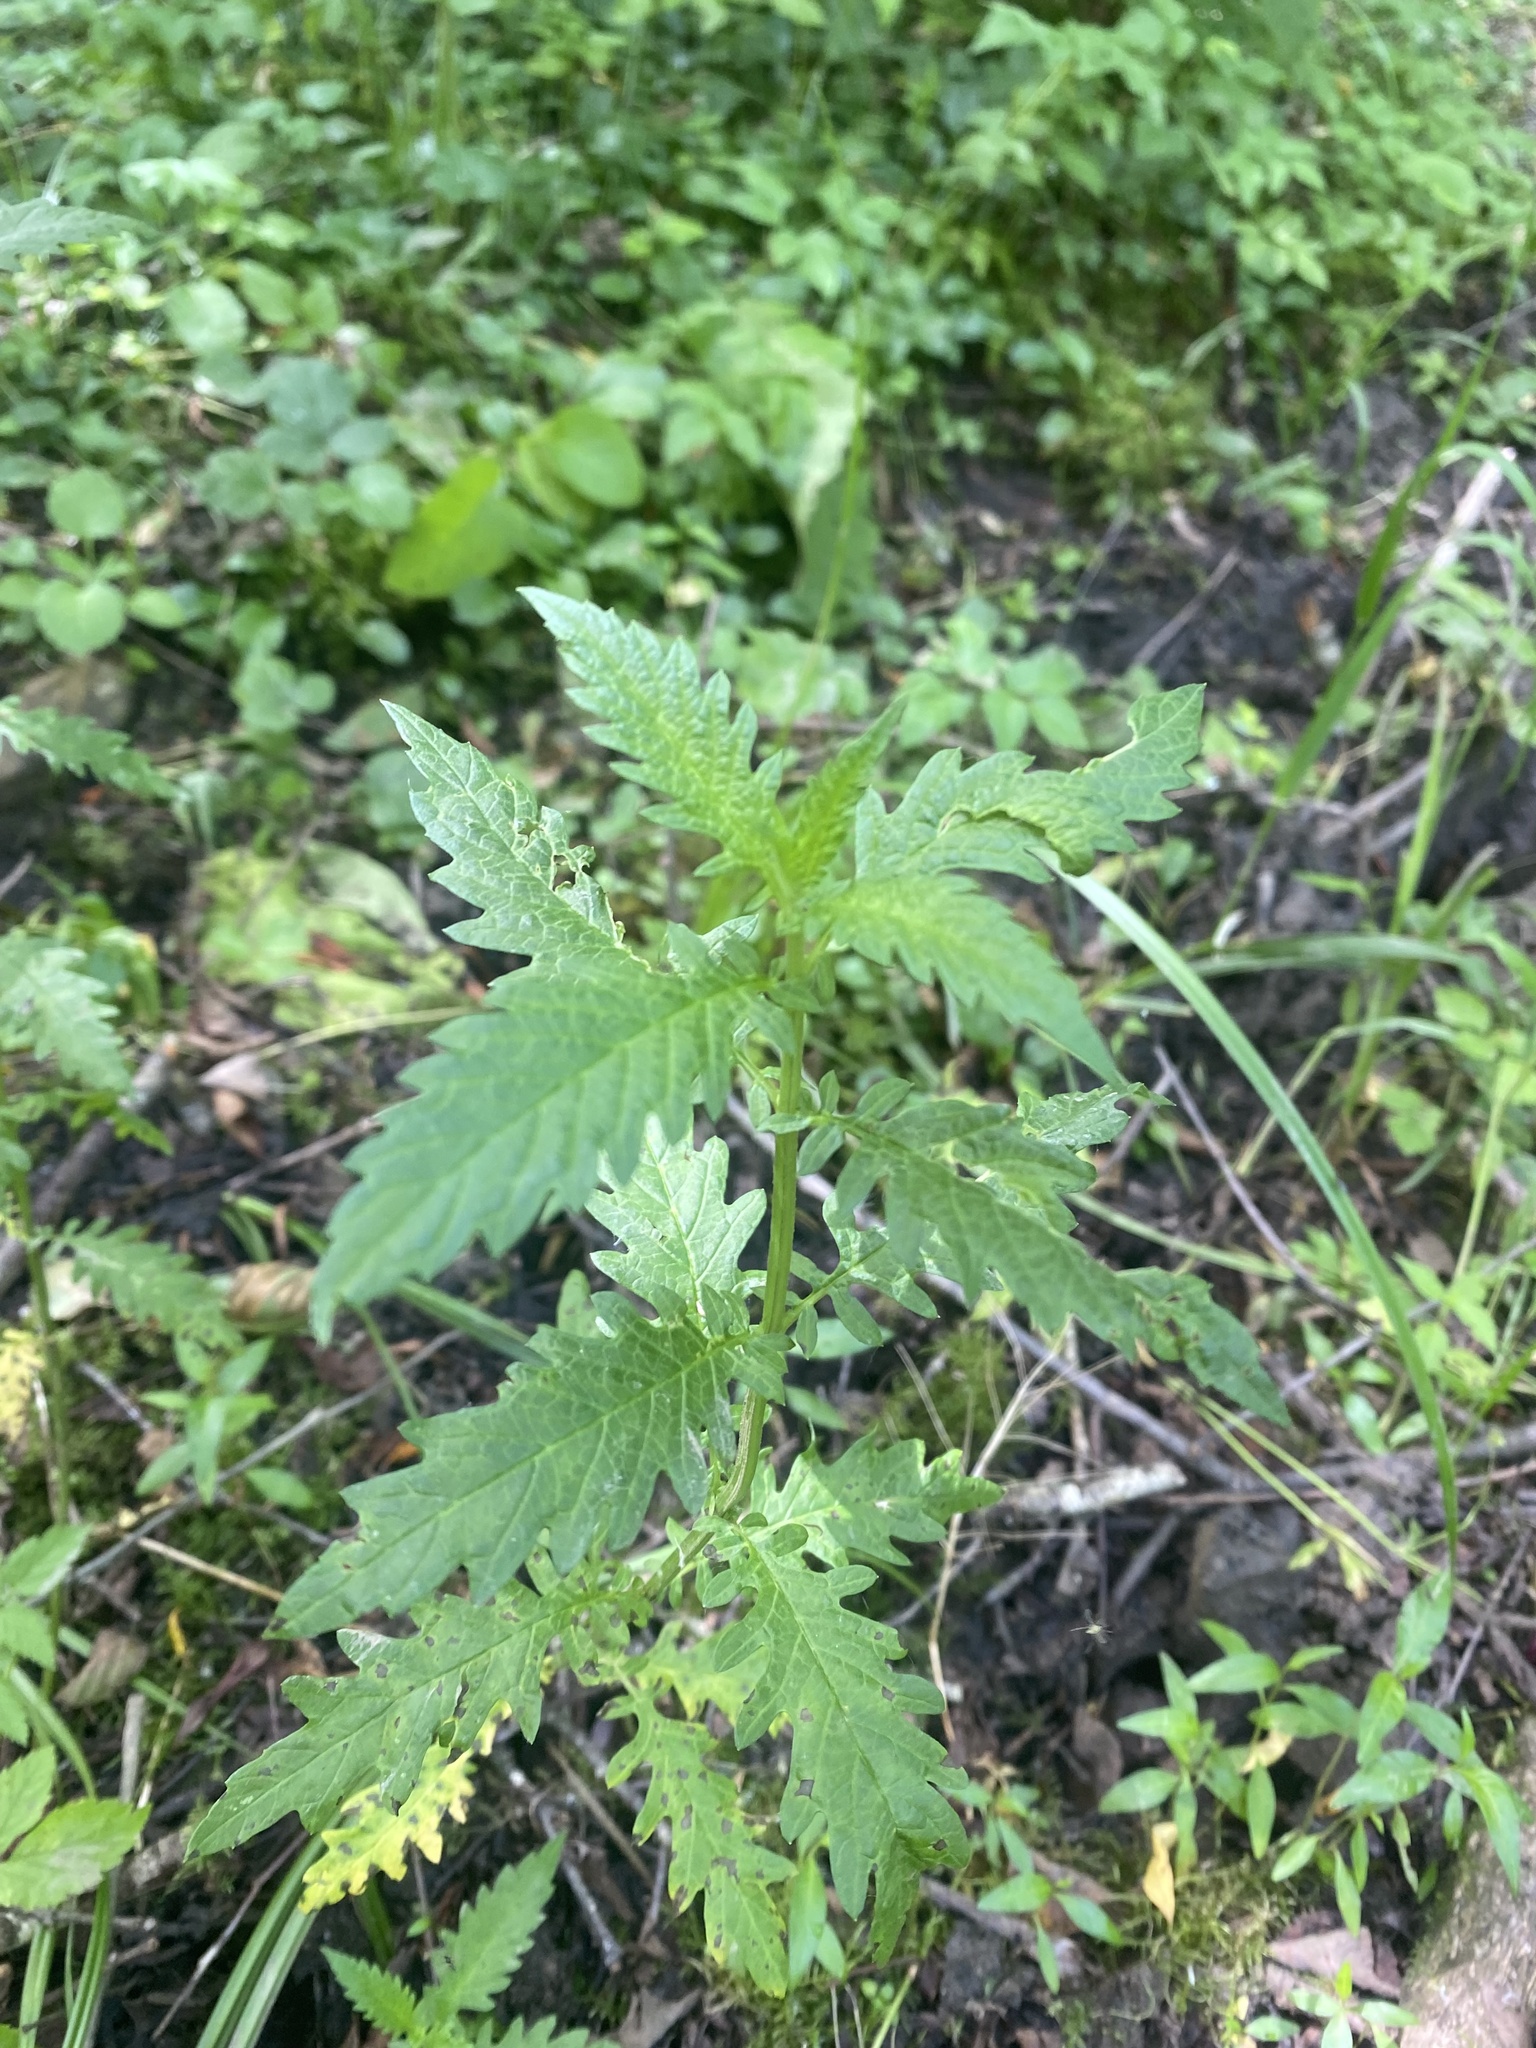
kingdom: Plantae
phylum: Tracheophyta
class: Magnoliopsida
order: Lamiales
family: Lamiaceae
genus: Lycopus
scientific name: Lycopus europaeus
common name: European bugleweed
